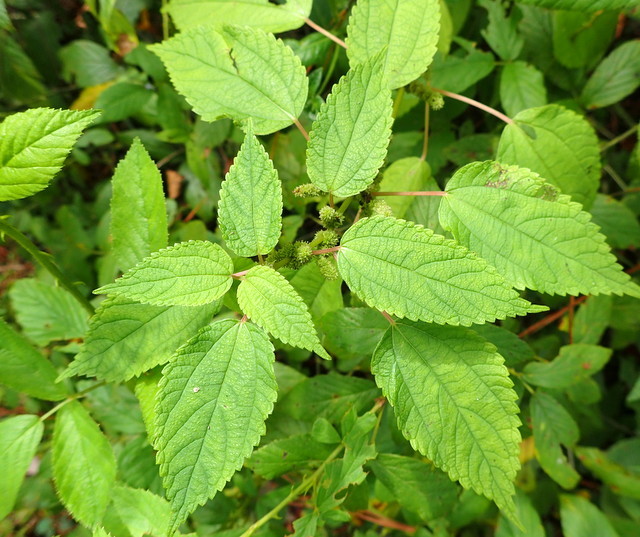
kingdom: Plantae
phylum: Tracheophyta
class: Magnoliopsida
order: Rosales
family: Urticaceae
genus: Boehmeria
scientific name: Boehmeria cylindrica
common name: Bog-hemp
